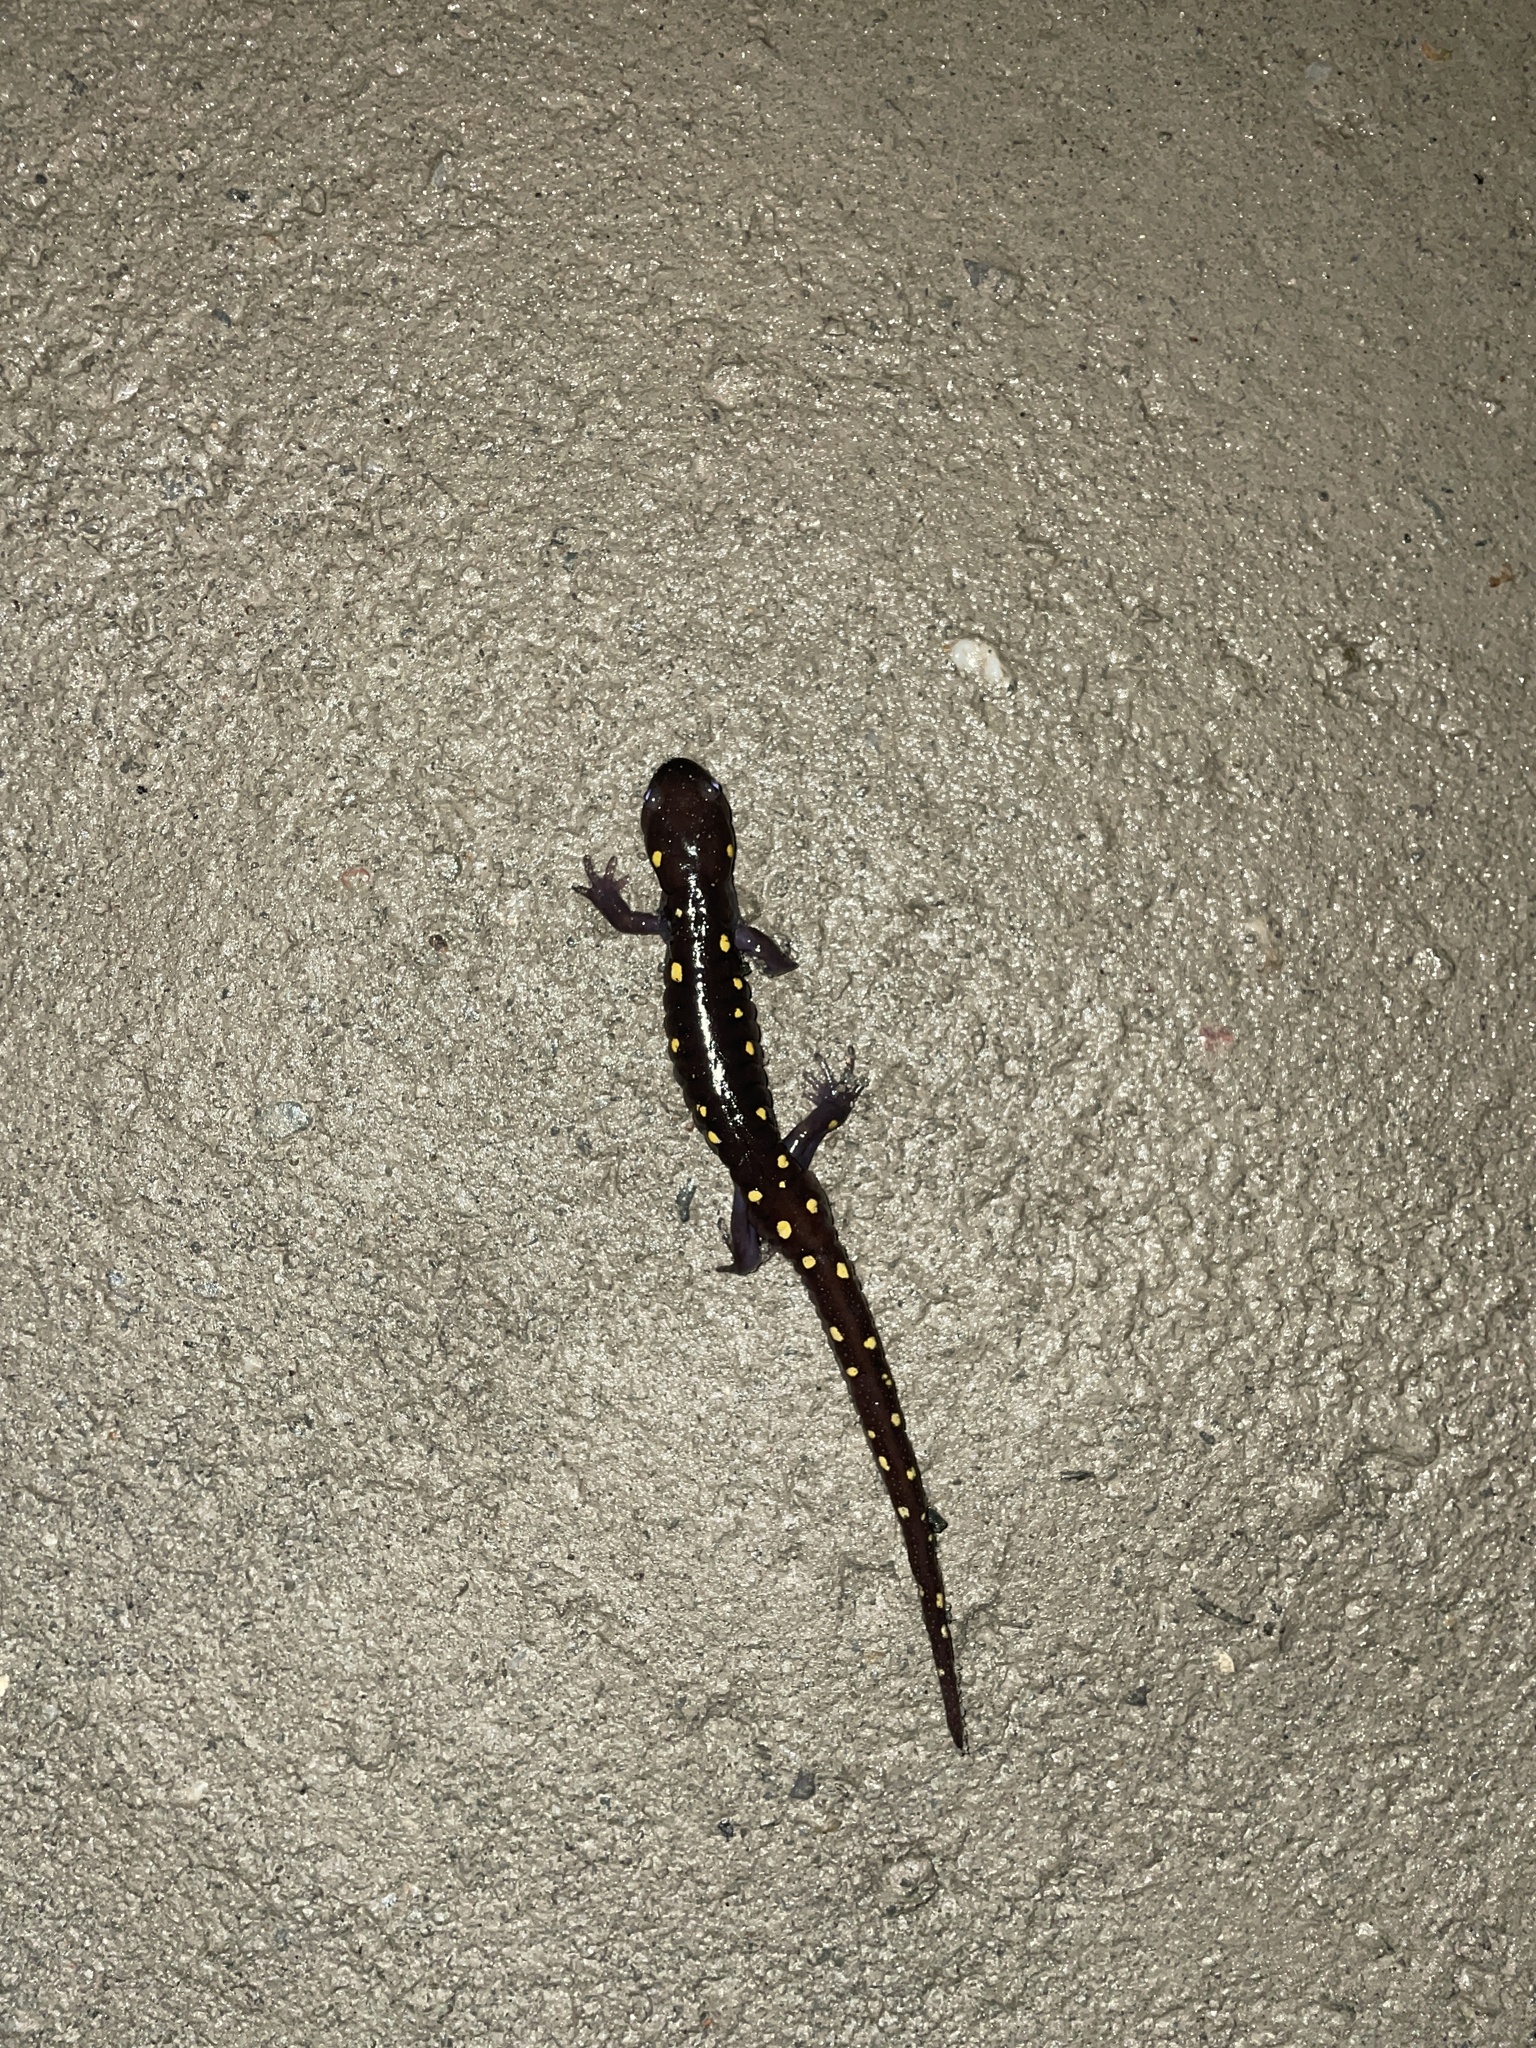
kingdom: Animalia
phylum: Chordata
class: Amphibia
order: Caudata
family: Ambystomatidae
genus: Ambystoma
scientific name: Ambystoma maculatum
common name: Spotted salamander
